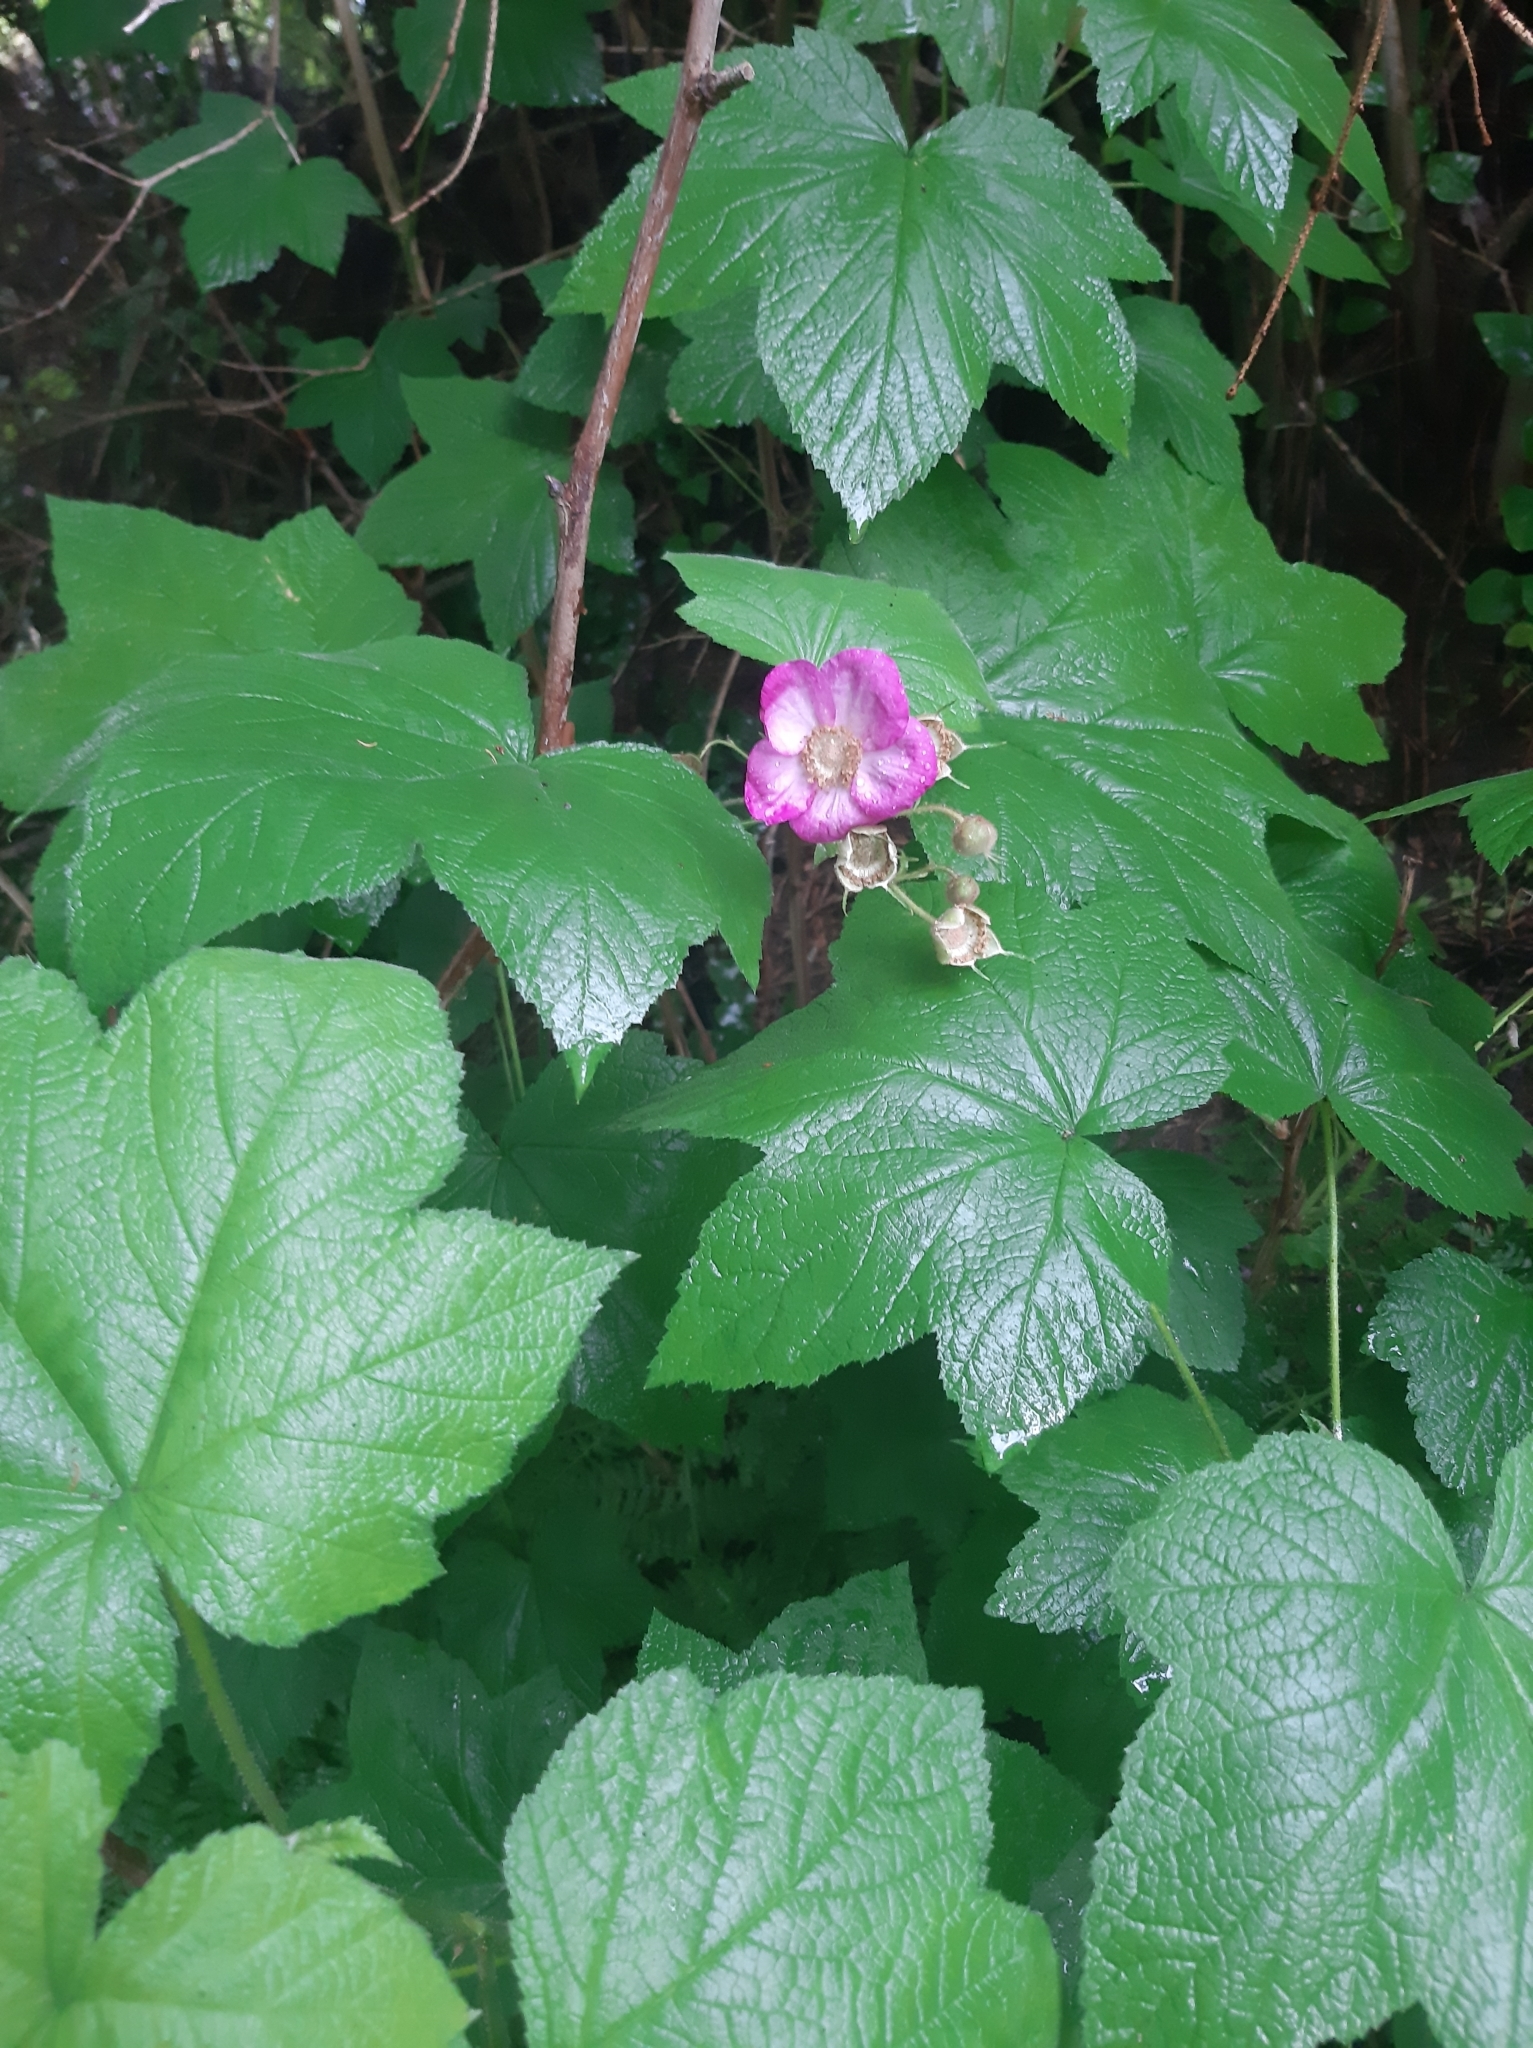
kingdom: Plantae
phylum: Tracheophyta
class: Magnoliopsida
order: Rosales
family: Rosaceae
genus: Rubus
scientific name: Rubus odoratus
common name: Purple-flowered raspberry
